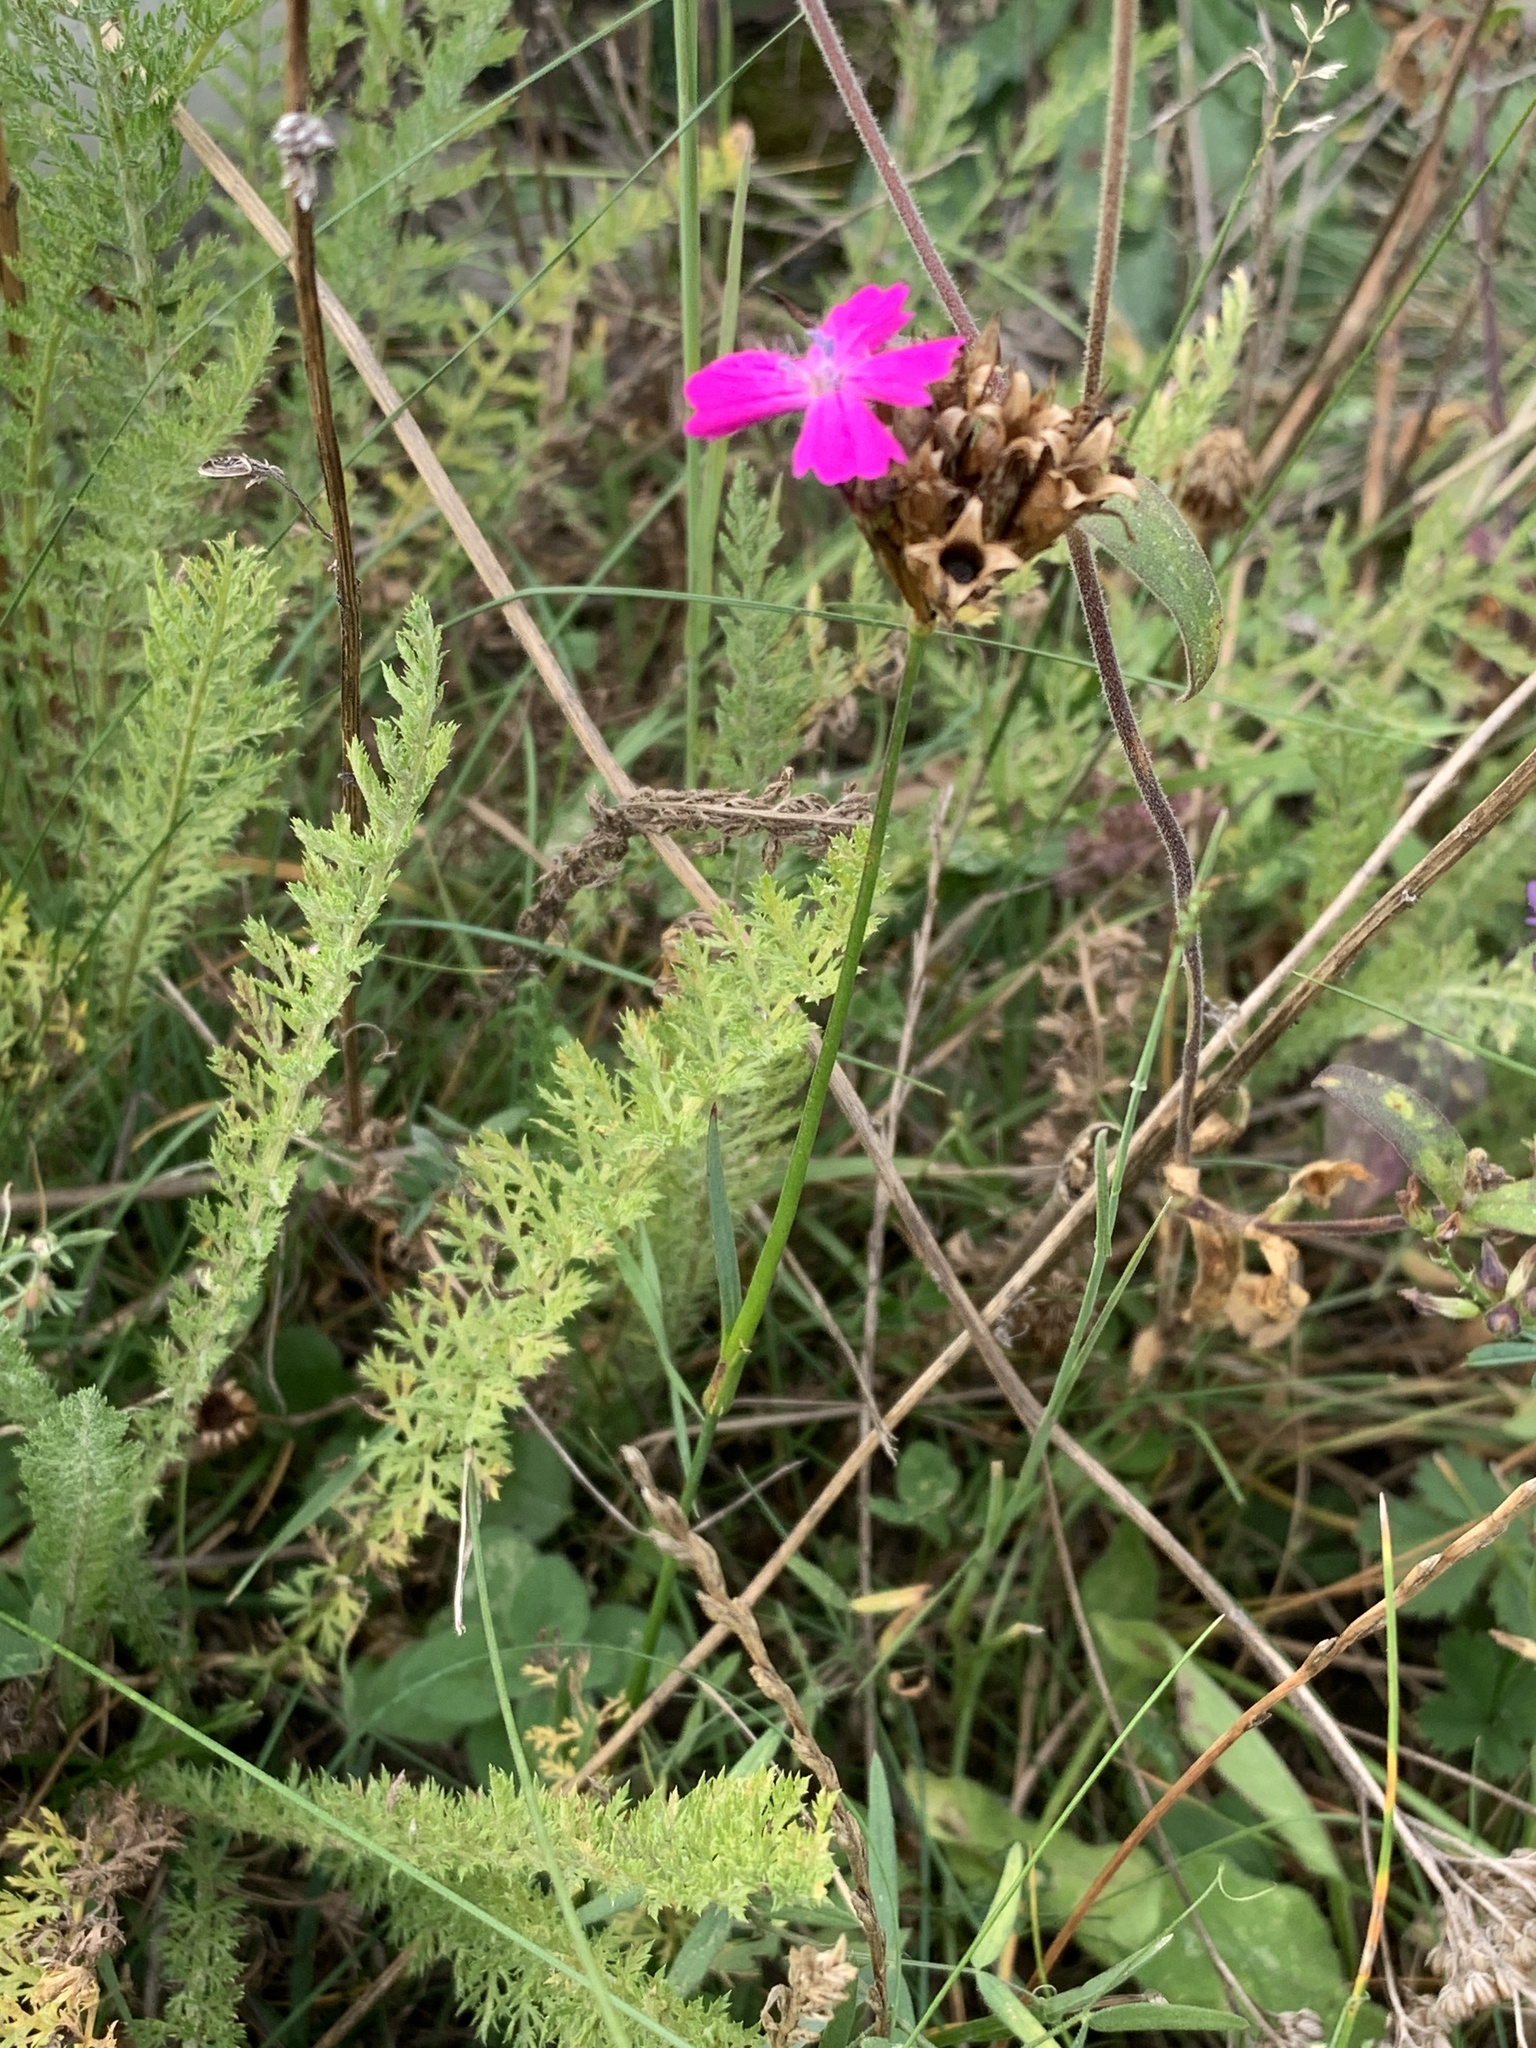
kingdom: Plantae
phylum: Tracheophyta
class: Magnoliopsida
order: Caryophyllales
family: Caryophyllaceae
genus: Dianthus
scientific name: Dianthus carthusianorum
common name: Carthusian pink
